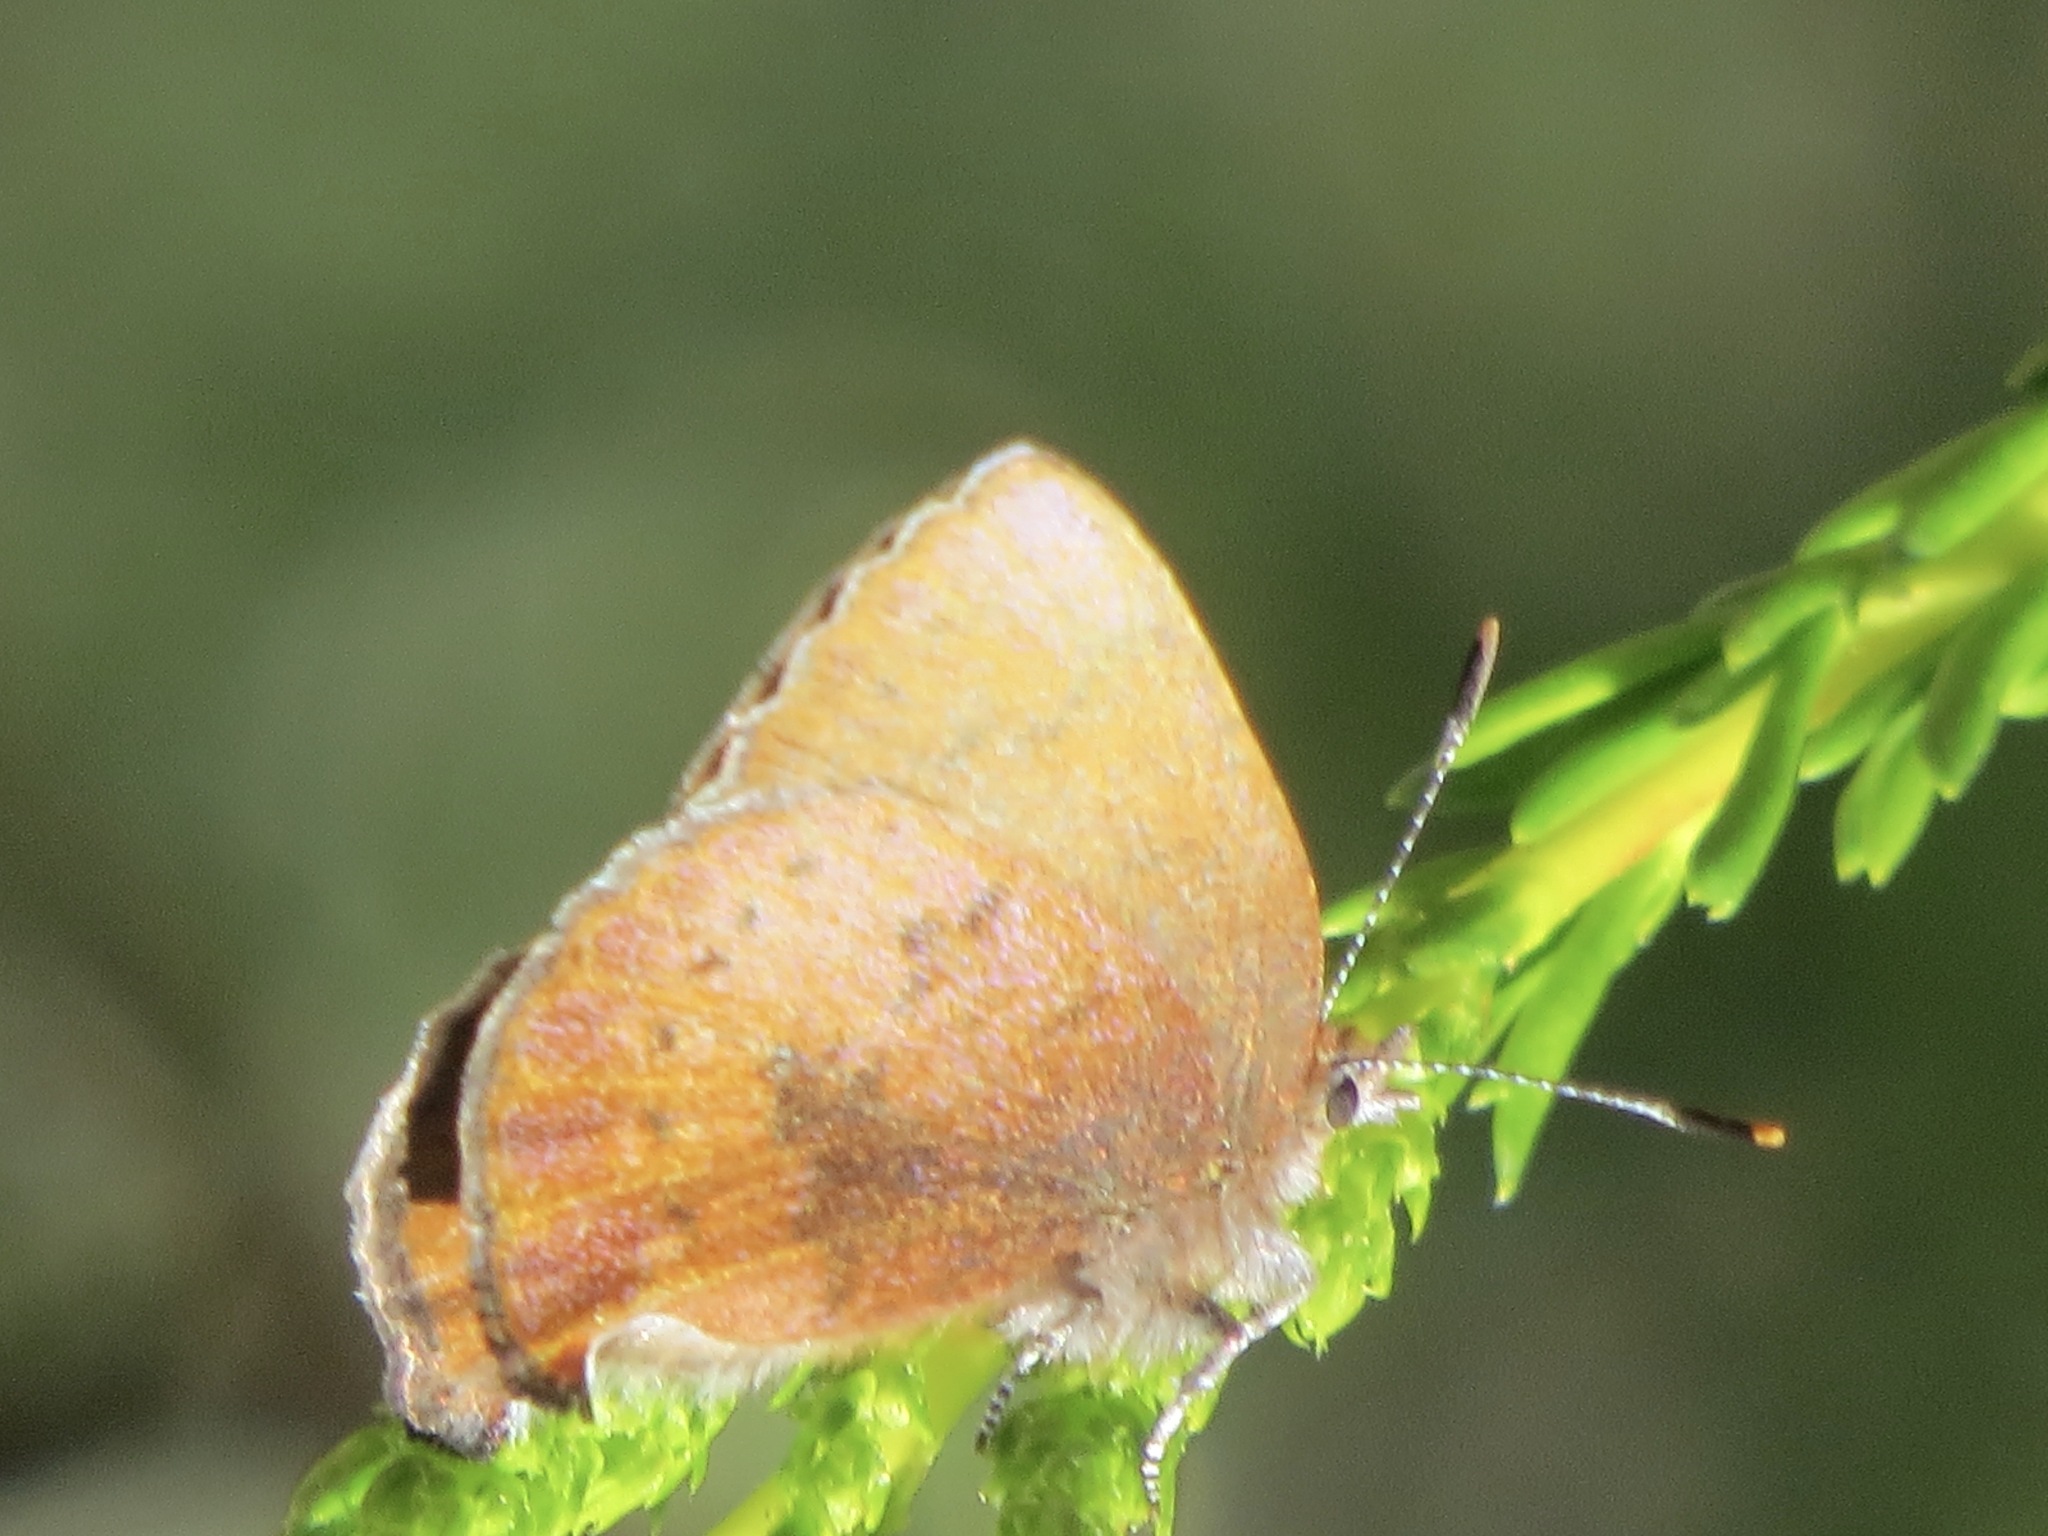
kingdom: Animalia
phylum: Arthropoda
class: Insecta
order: Lepidoptera
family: Lycaenidae
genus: Incisalia
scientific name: Incisalia irioides
